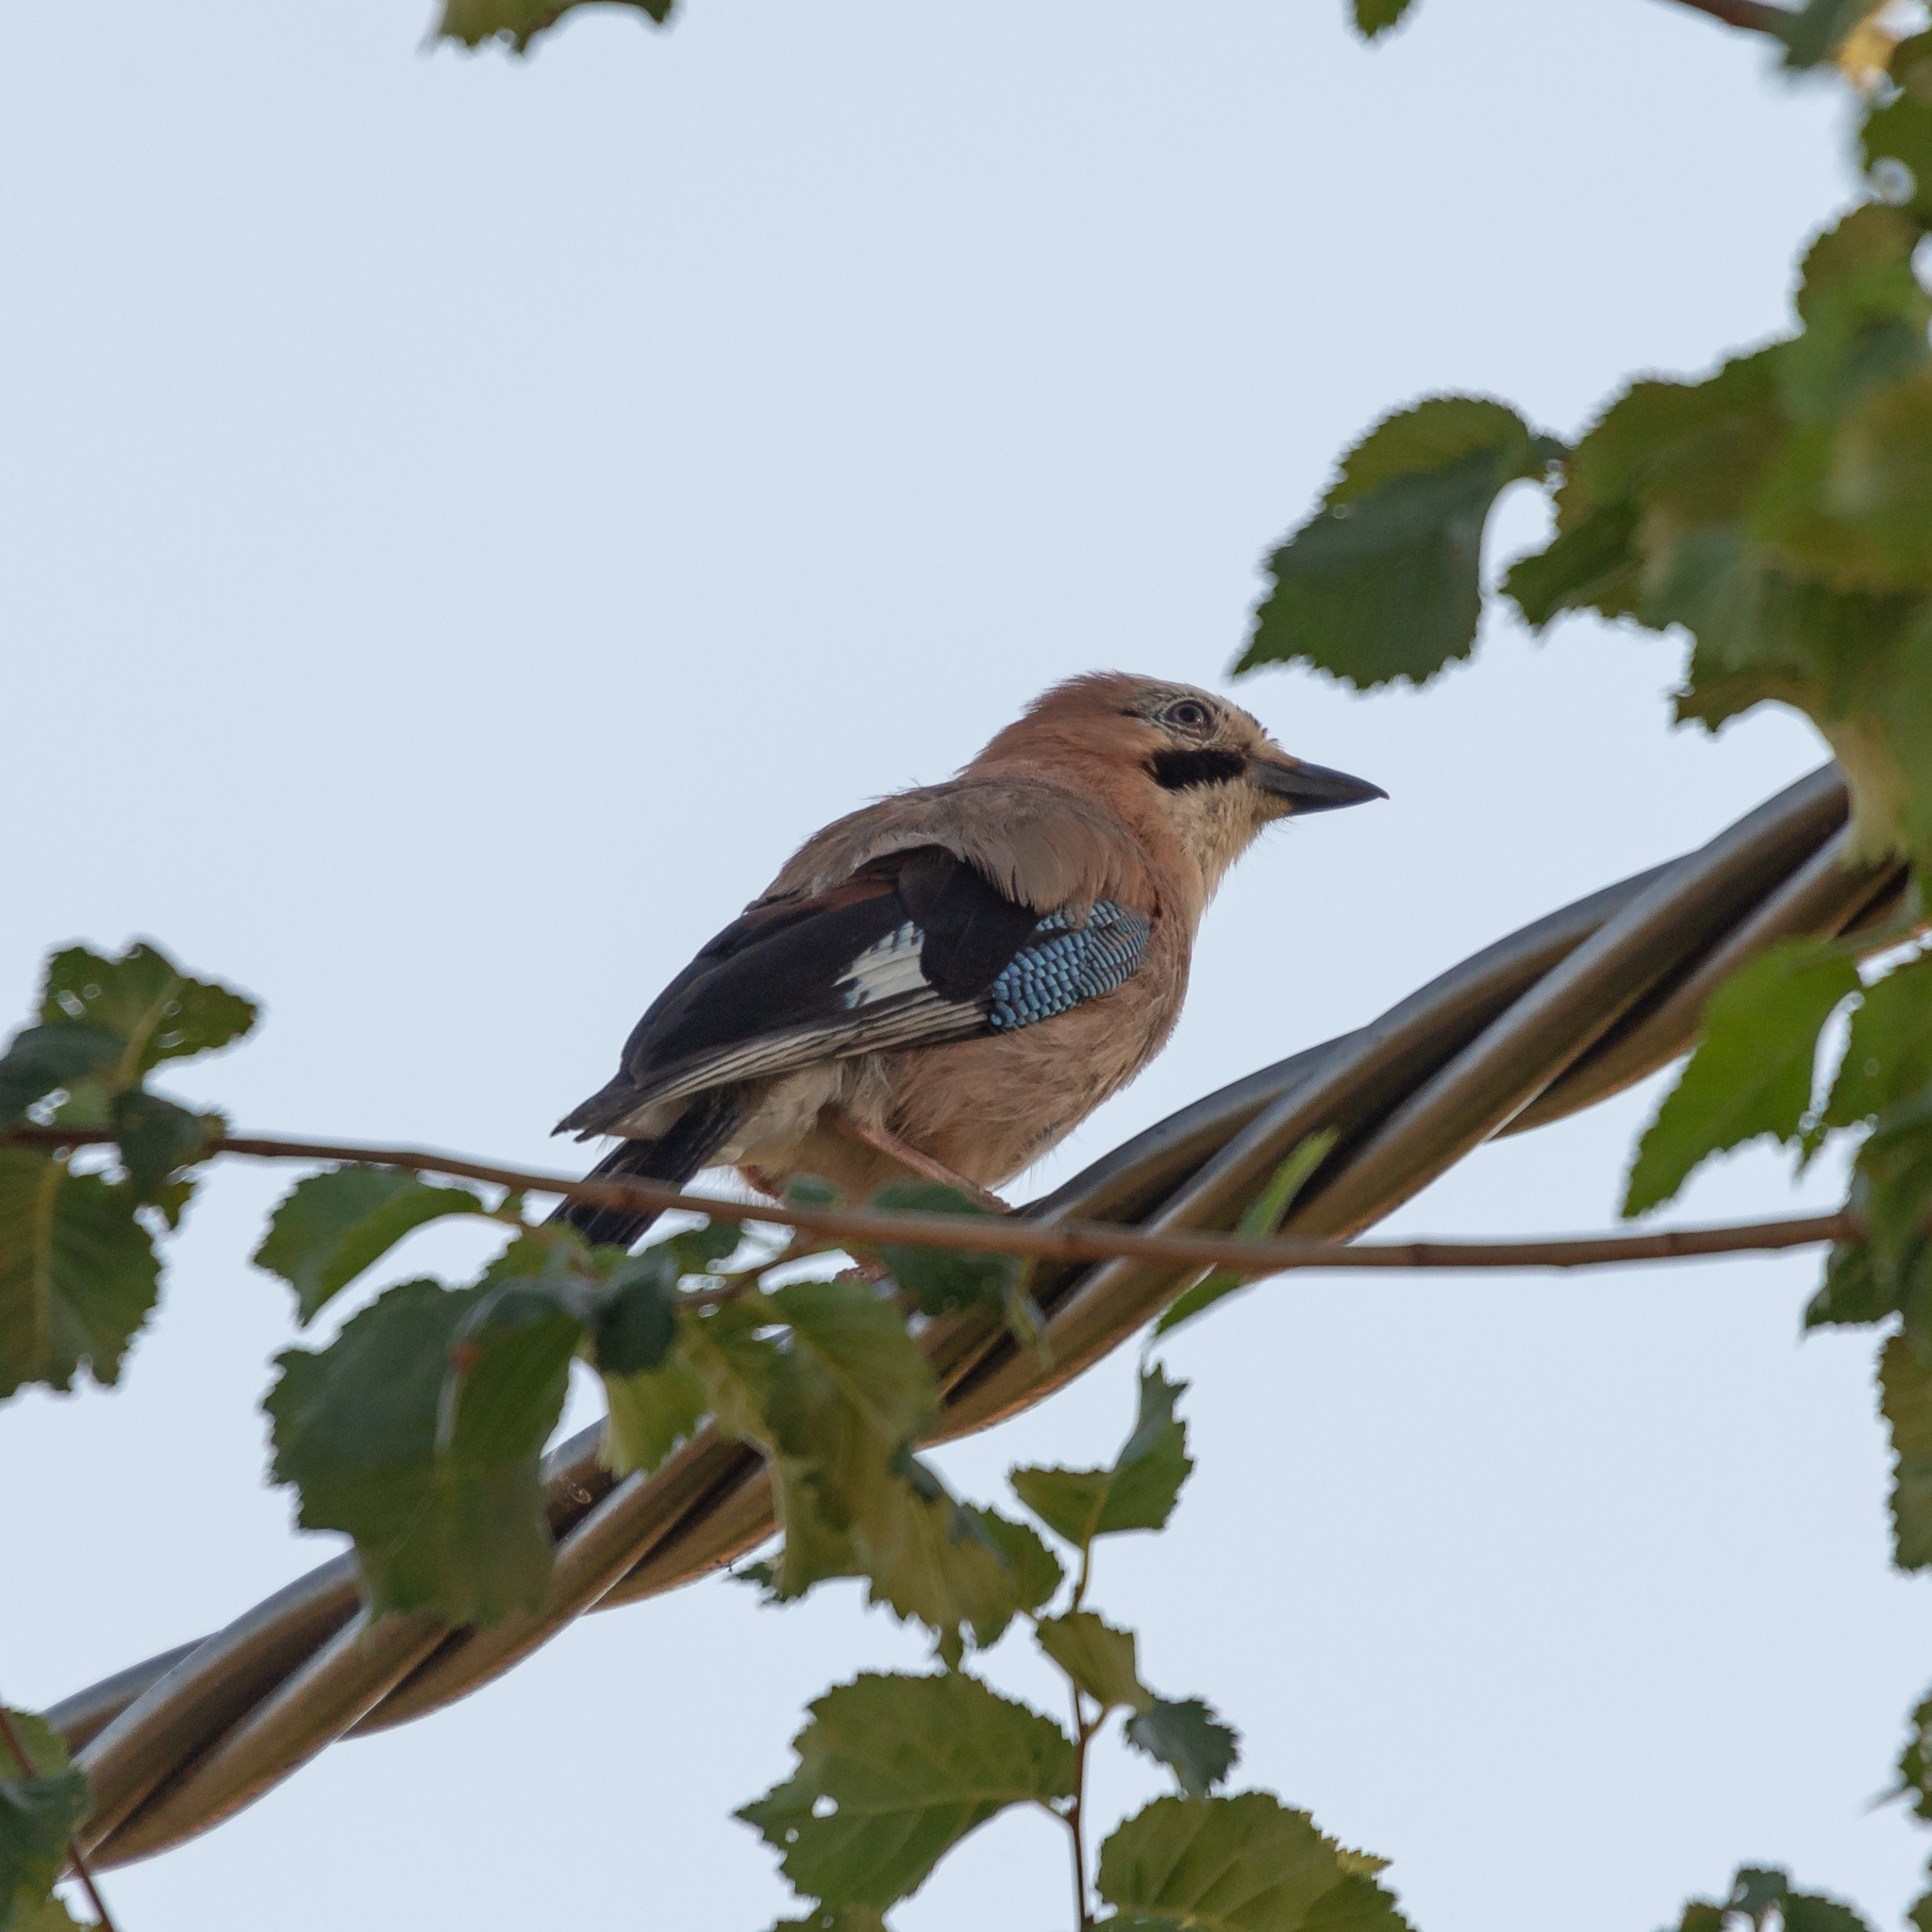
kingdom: Animalia
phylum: Chordata
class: Aves
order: Passeriformes
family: Corvidae
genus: Garrulus
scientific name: Garrulus glandarius
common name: Eurasian jay
